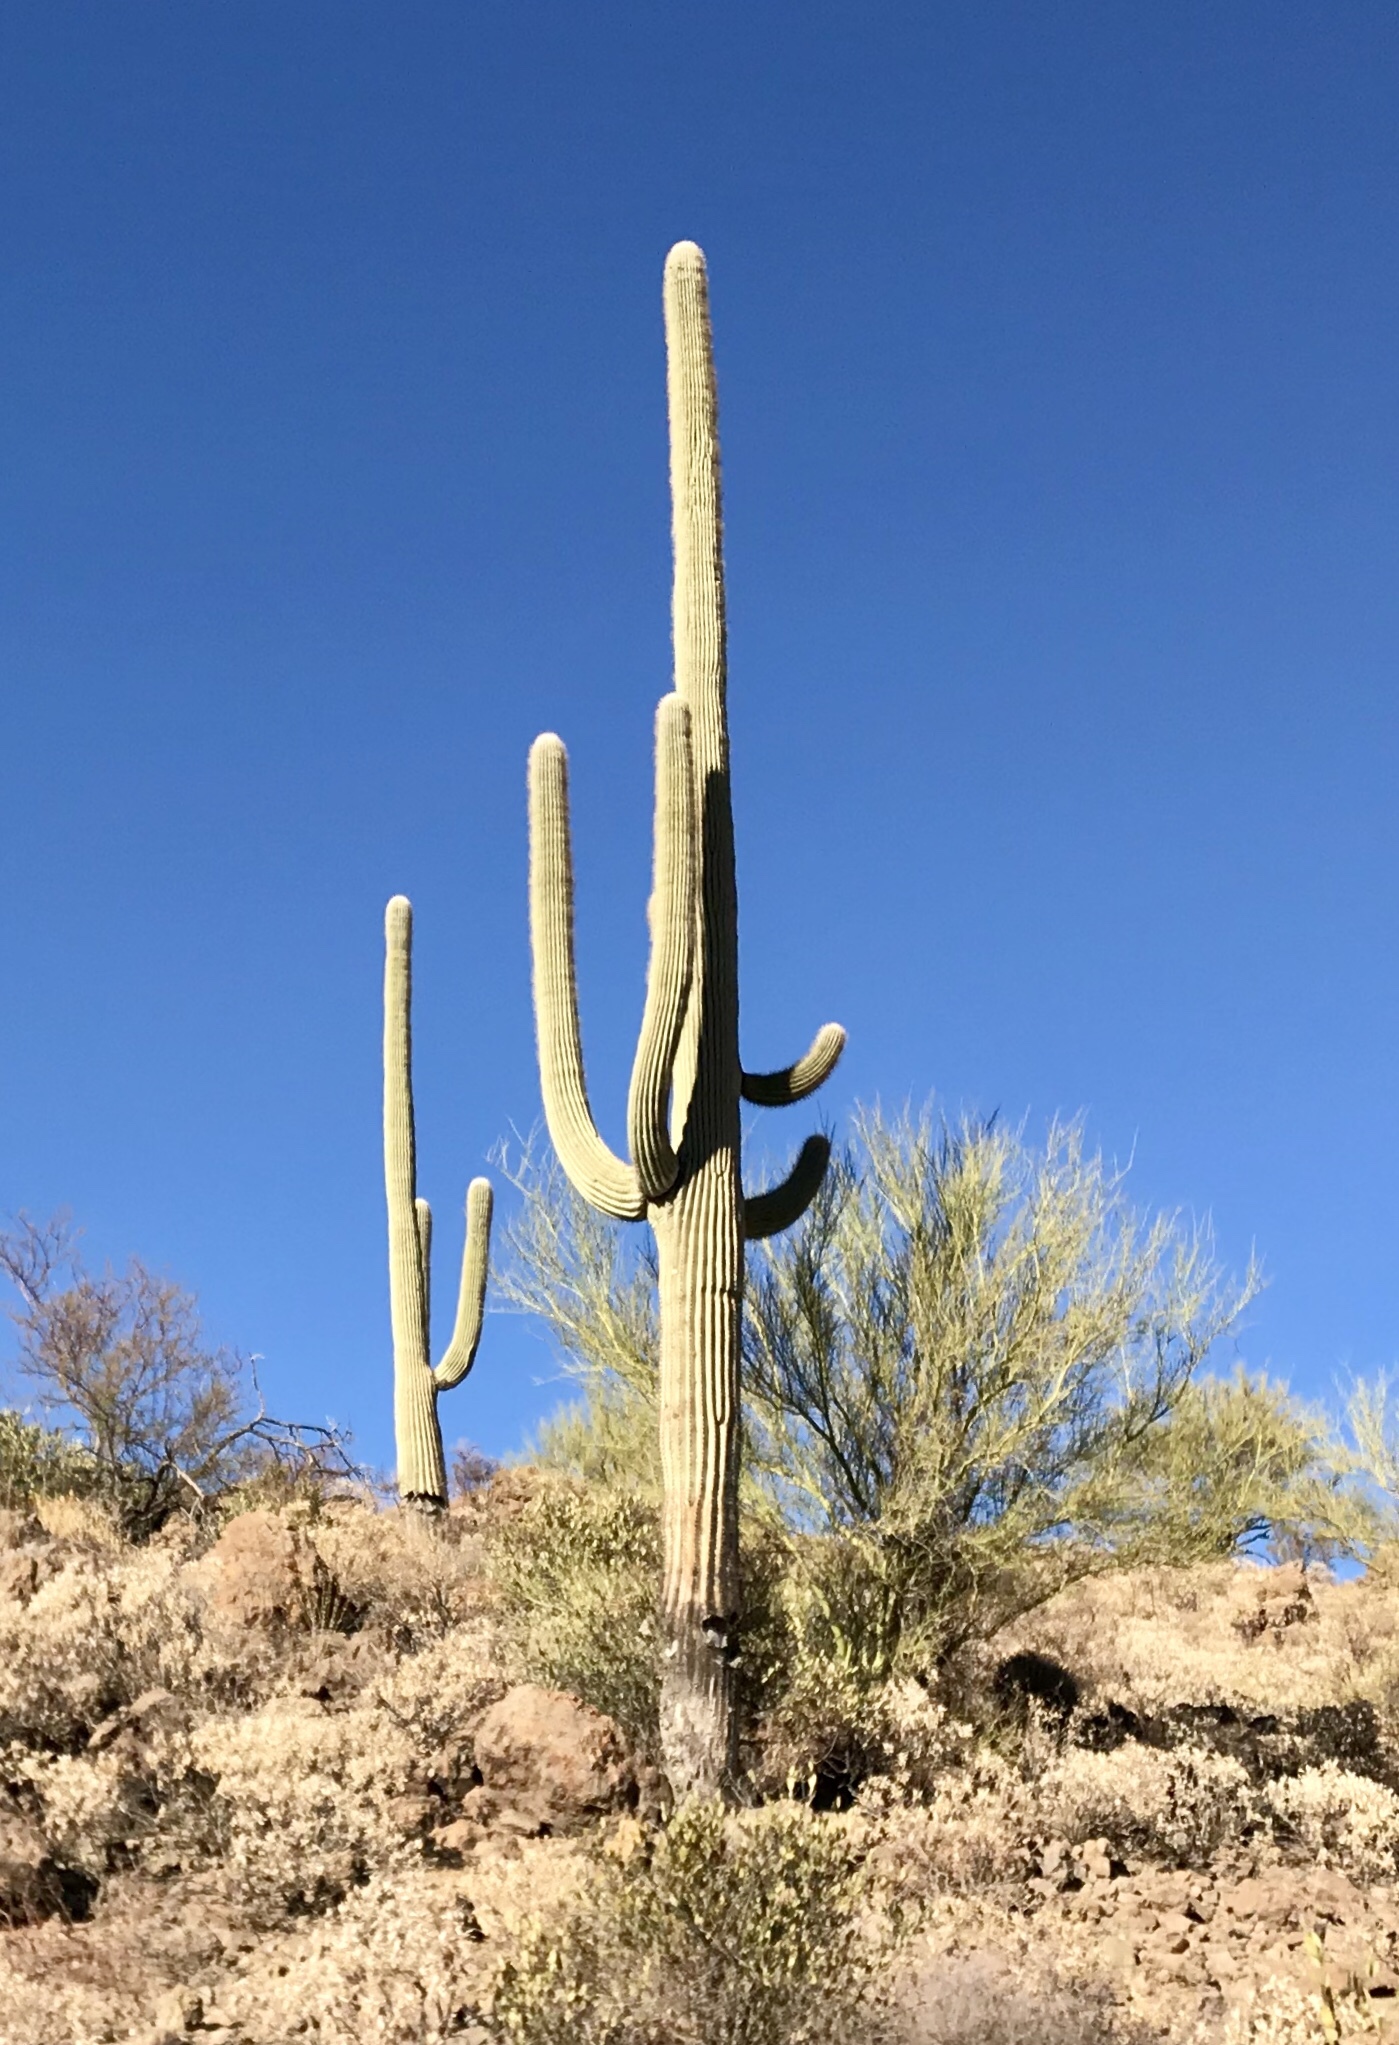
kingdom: Plantae
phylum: Tracheophyta
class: Magnoliopsida
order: Caryophyllales
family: Cactaceae
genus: Carnegiea
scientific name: Carnegiea gigantea
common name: Saguaro
